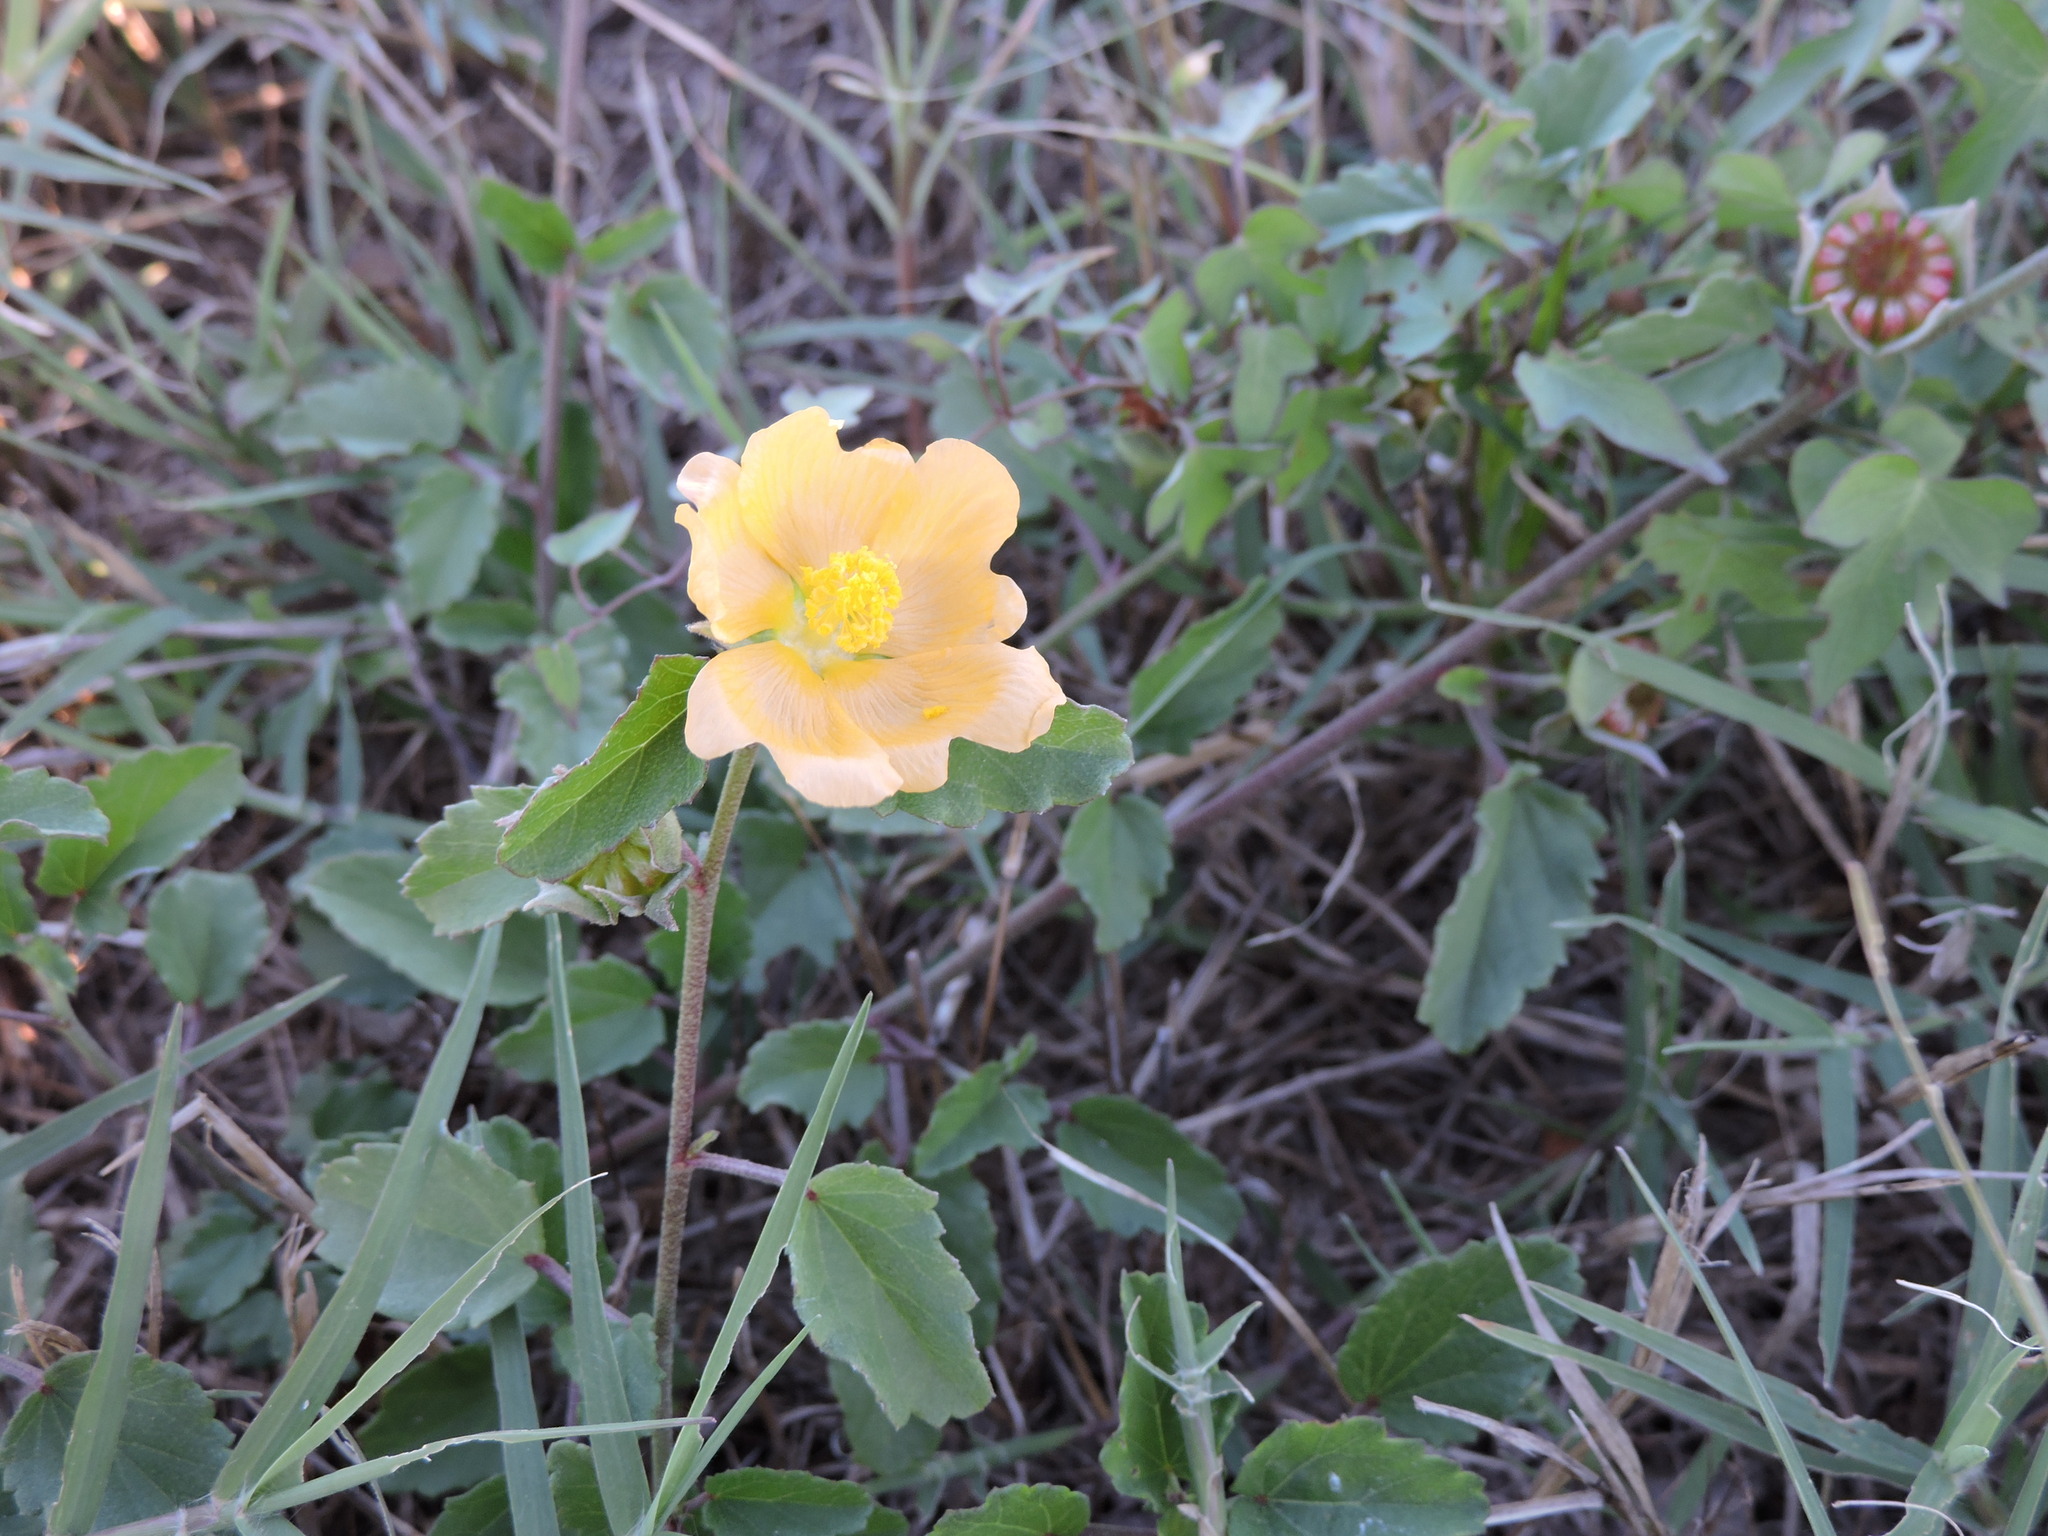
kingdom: Plantae
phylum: Tracheophyta
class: Magnoliopsida
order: Malvales
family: Malvaceae
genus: Malvastrum
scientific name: Malvastrum aurantiacum
